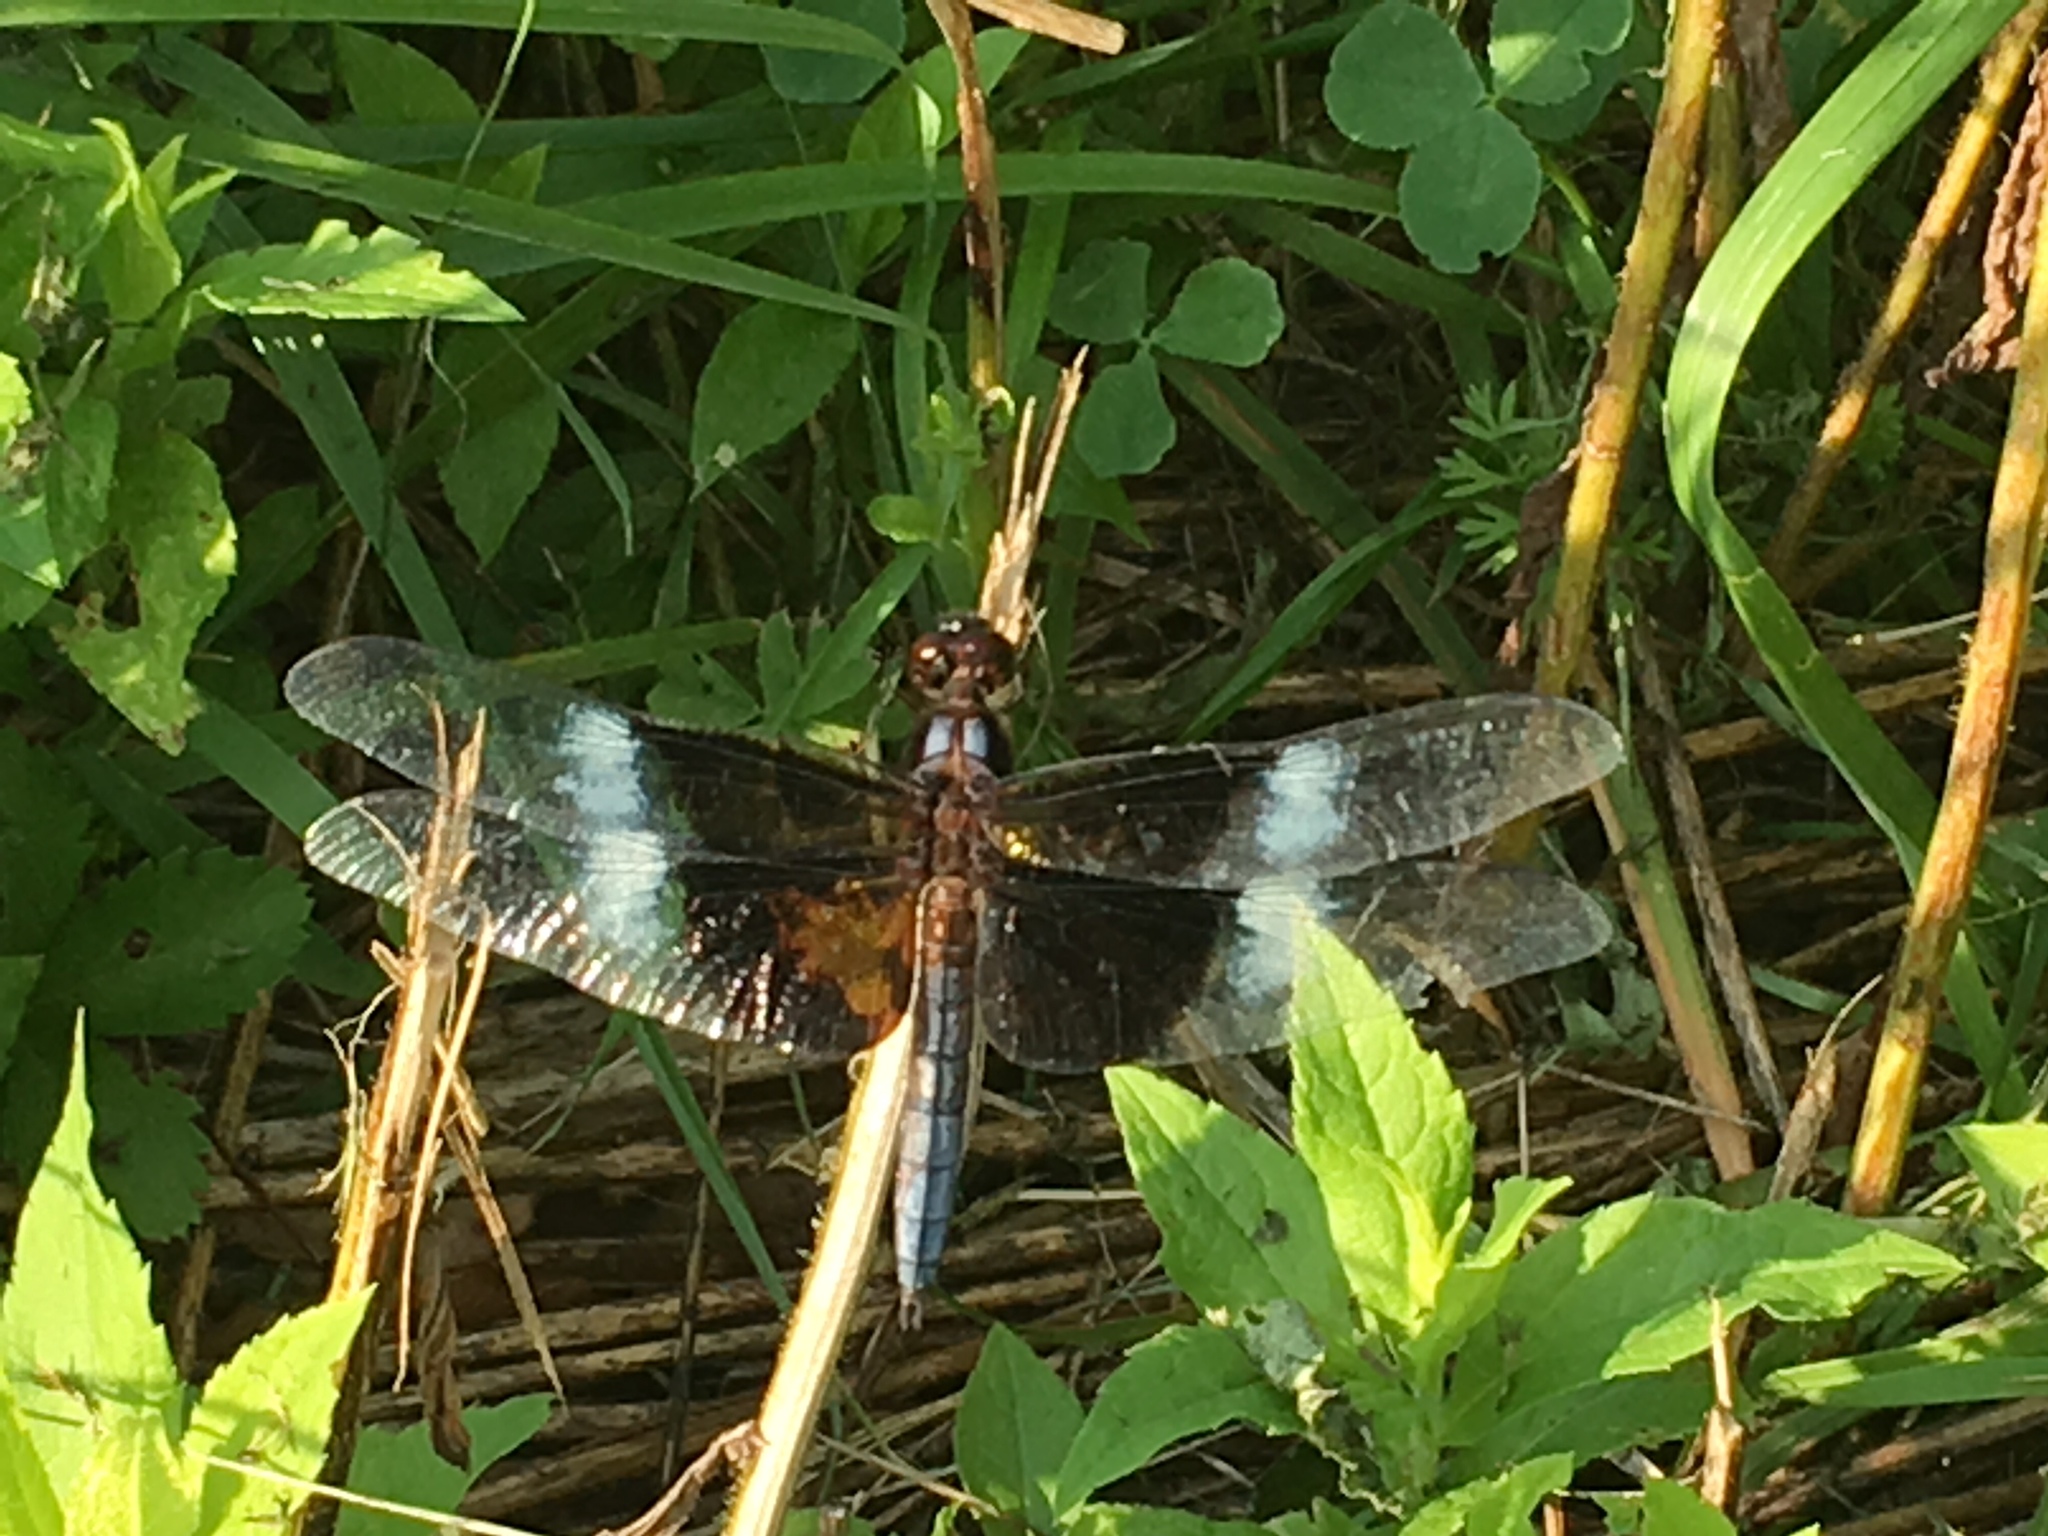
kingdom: Animalia
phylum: Arthropoda
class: Insecta
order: Odonata
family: Libellulidae
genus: Libellula
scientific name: Libellula luctuosa
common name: Widow skimmer
